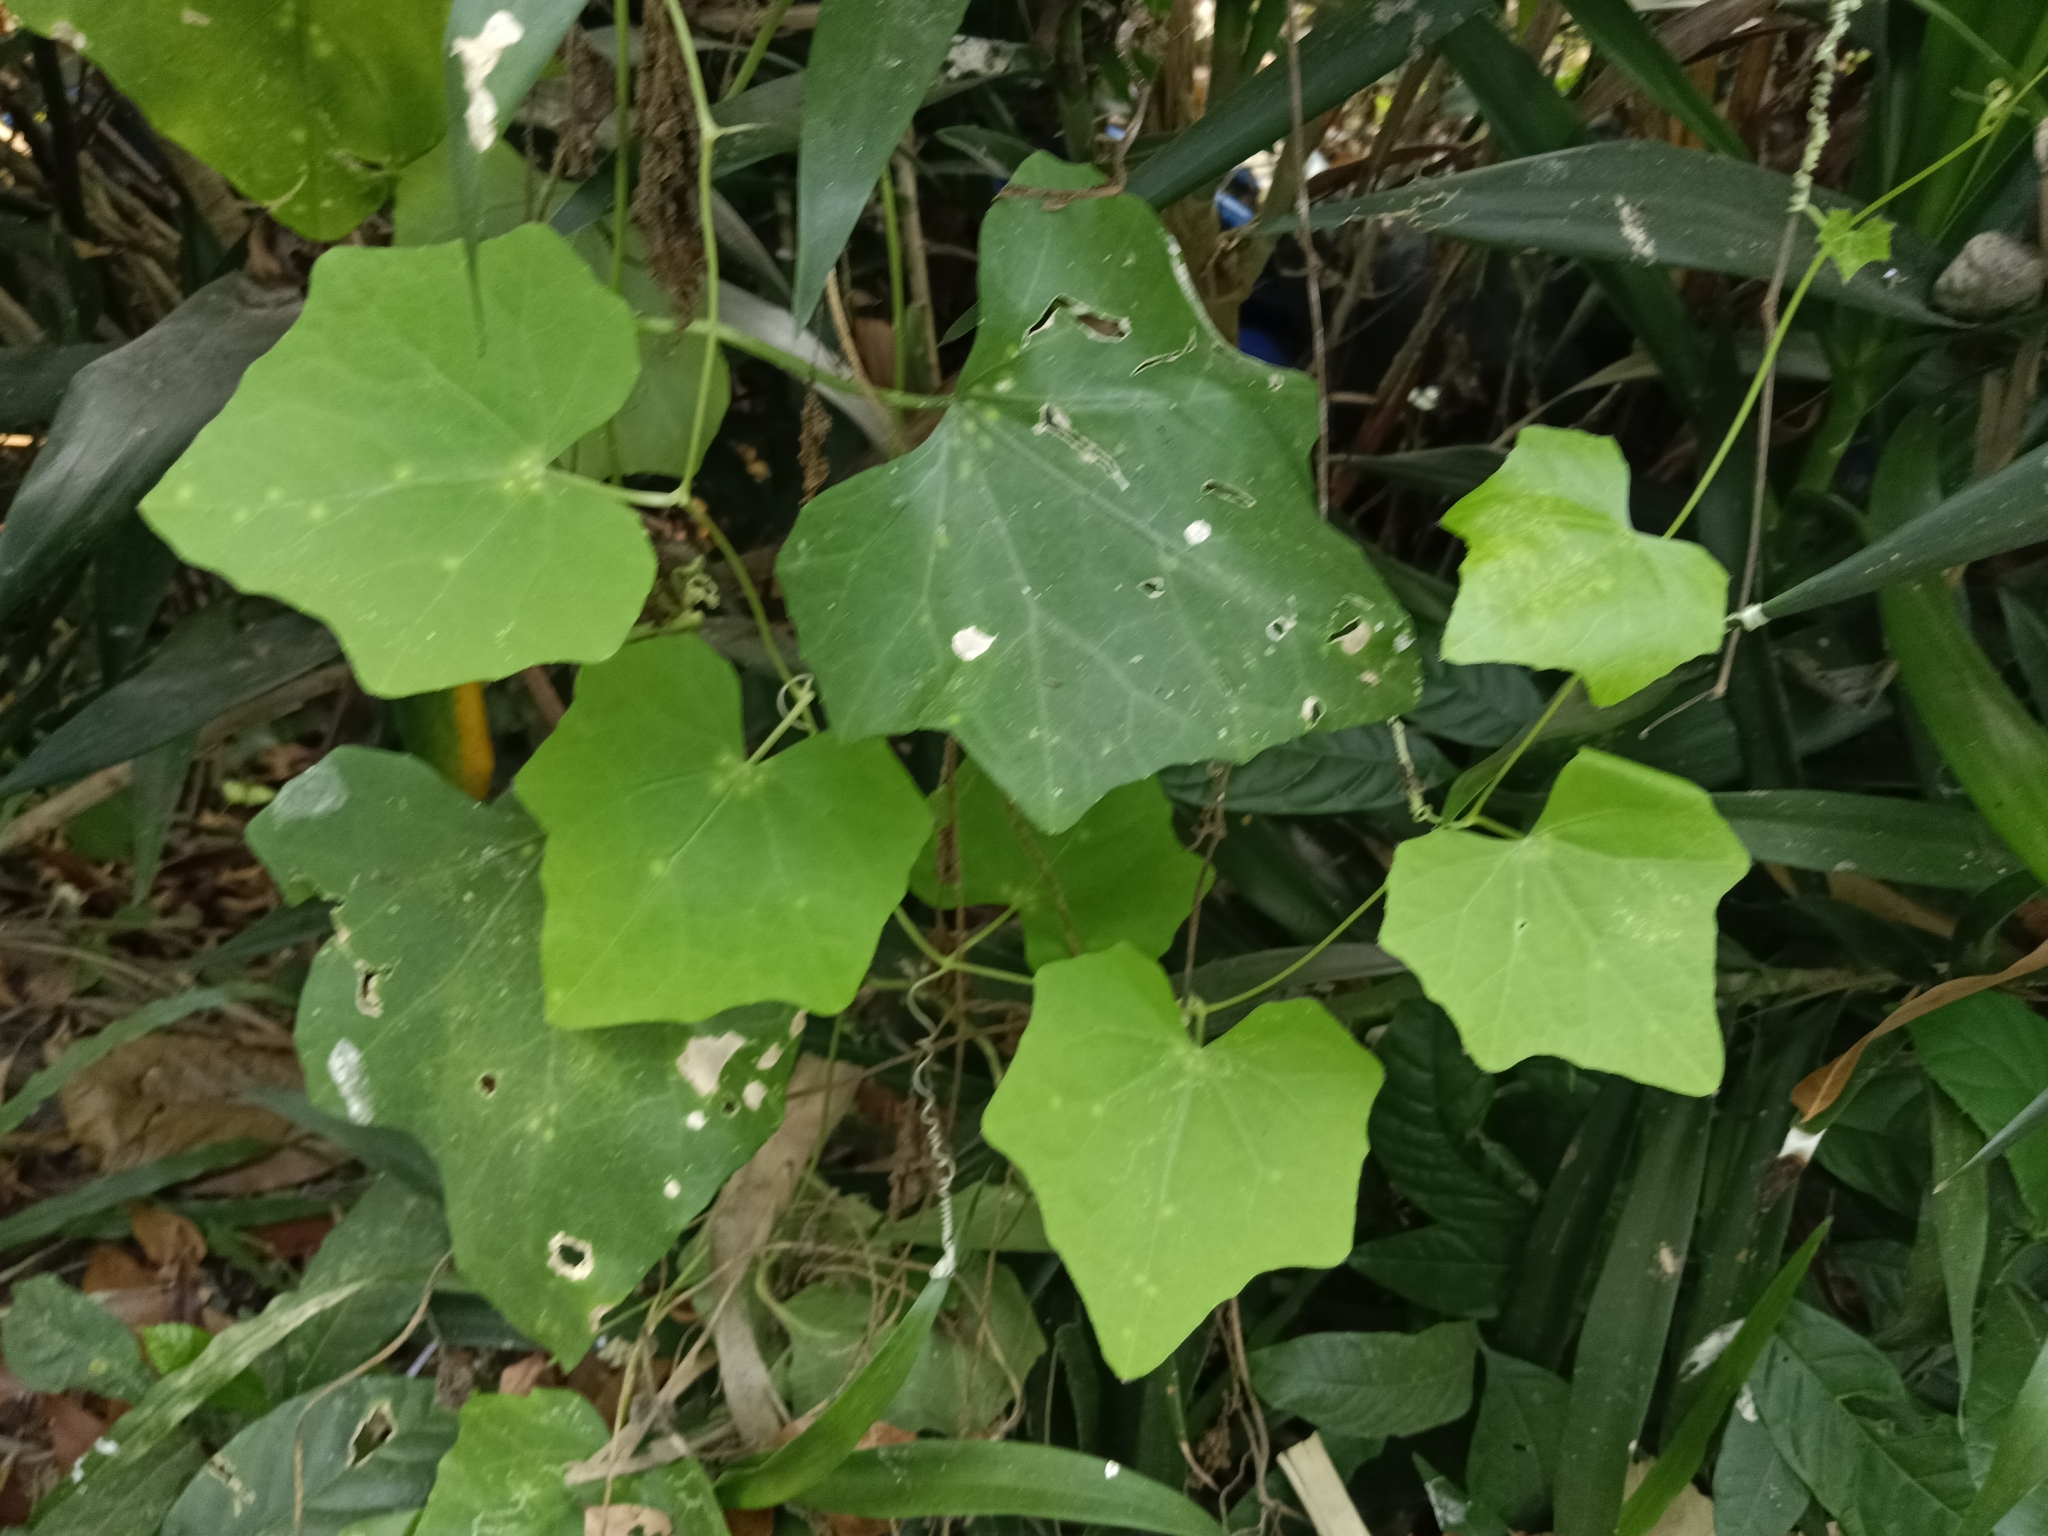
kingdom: Plantae
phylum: Tracheophyta
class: Magnoliopsida
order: Cucurbitales
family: Cucurbitaceae
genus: Coccinia
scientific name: Coccinia grandis
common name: Ivy gourd
